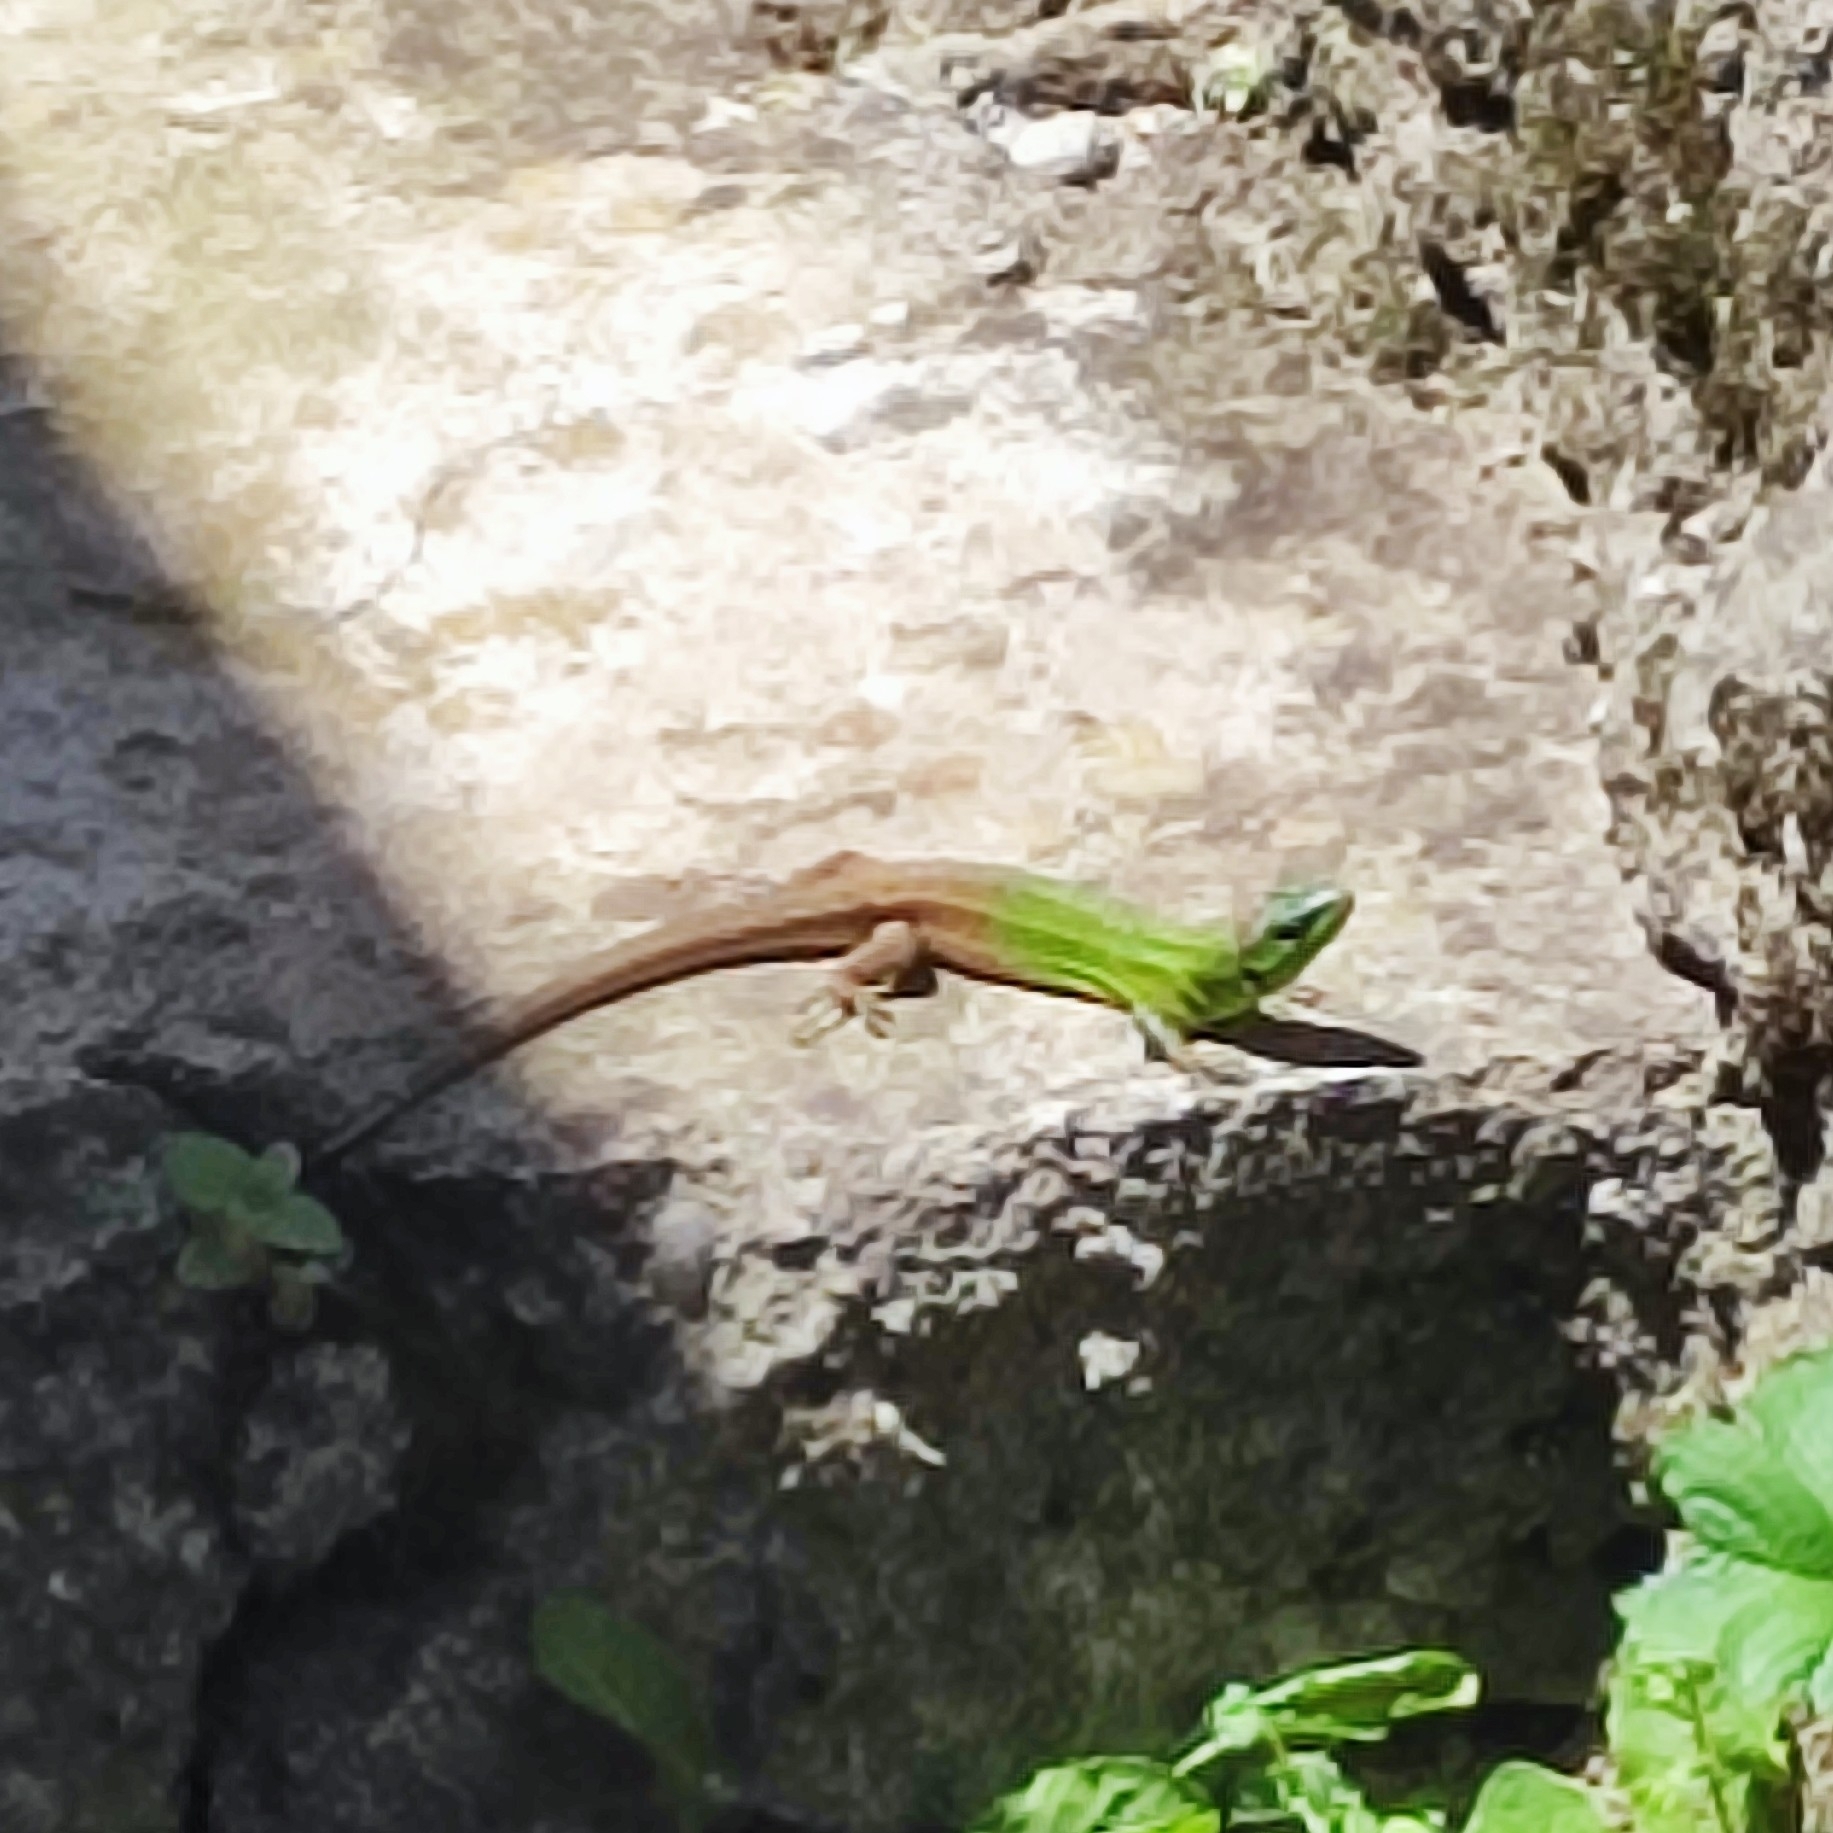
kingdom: Animalia
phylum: Chordata
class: Squamata
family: Lacertidae
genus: Lacerta
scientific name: Lacerta strigata
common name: Caspian green lizard
